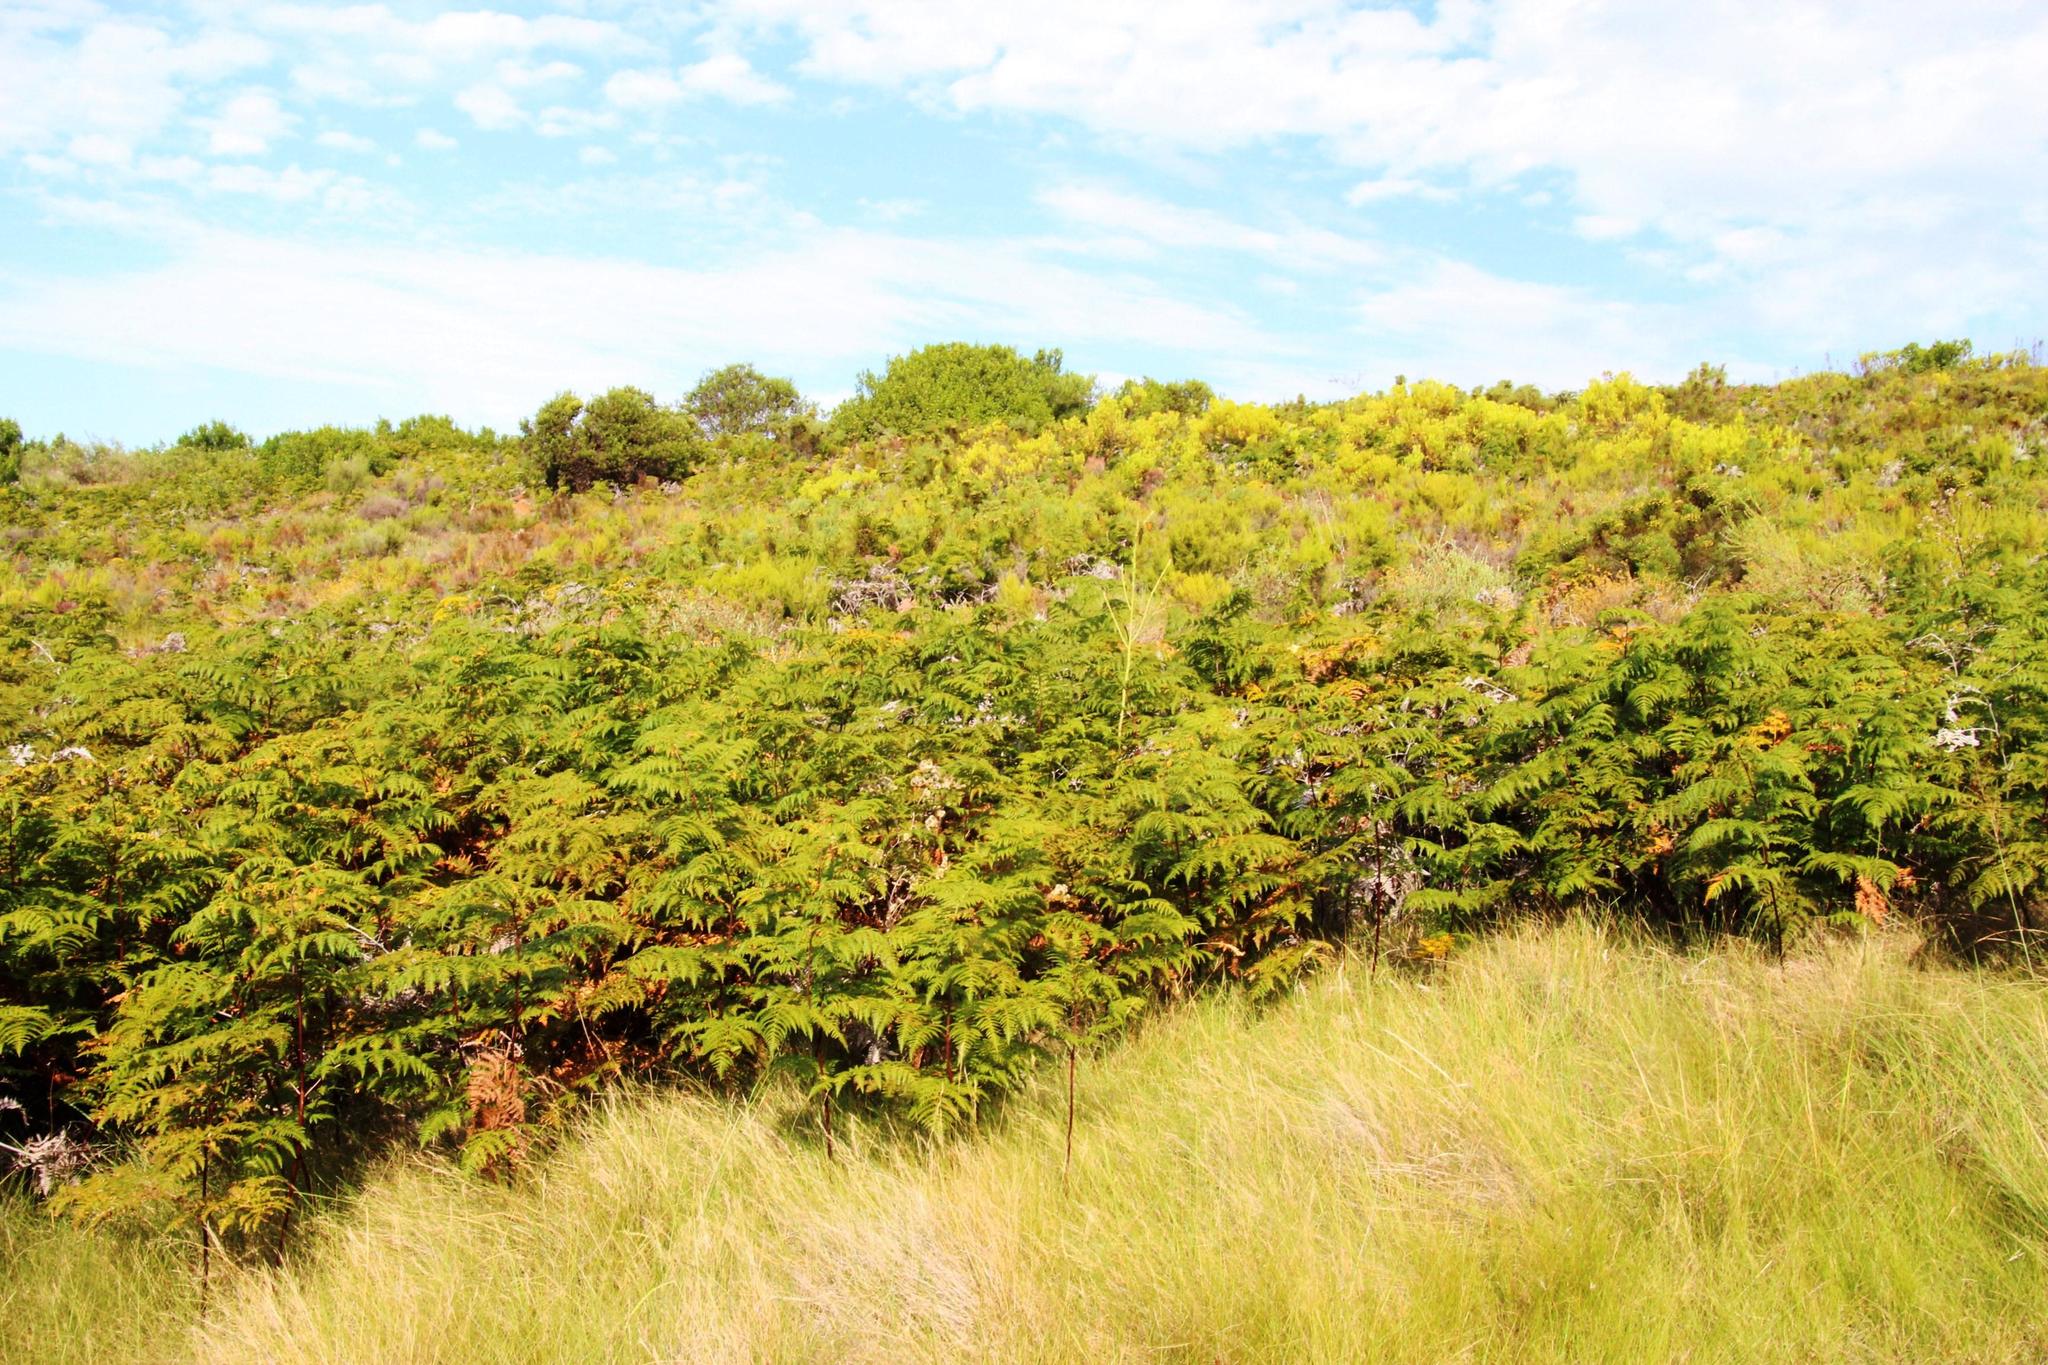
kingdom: Plantae
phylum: Tracheophyta
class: Polypodiopsida
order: Polypodiales
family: Dennstaedtiaceae
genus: Pteridium
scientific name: Pteridium aquilinum
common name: Bracken
